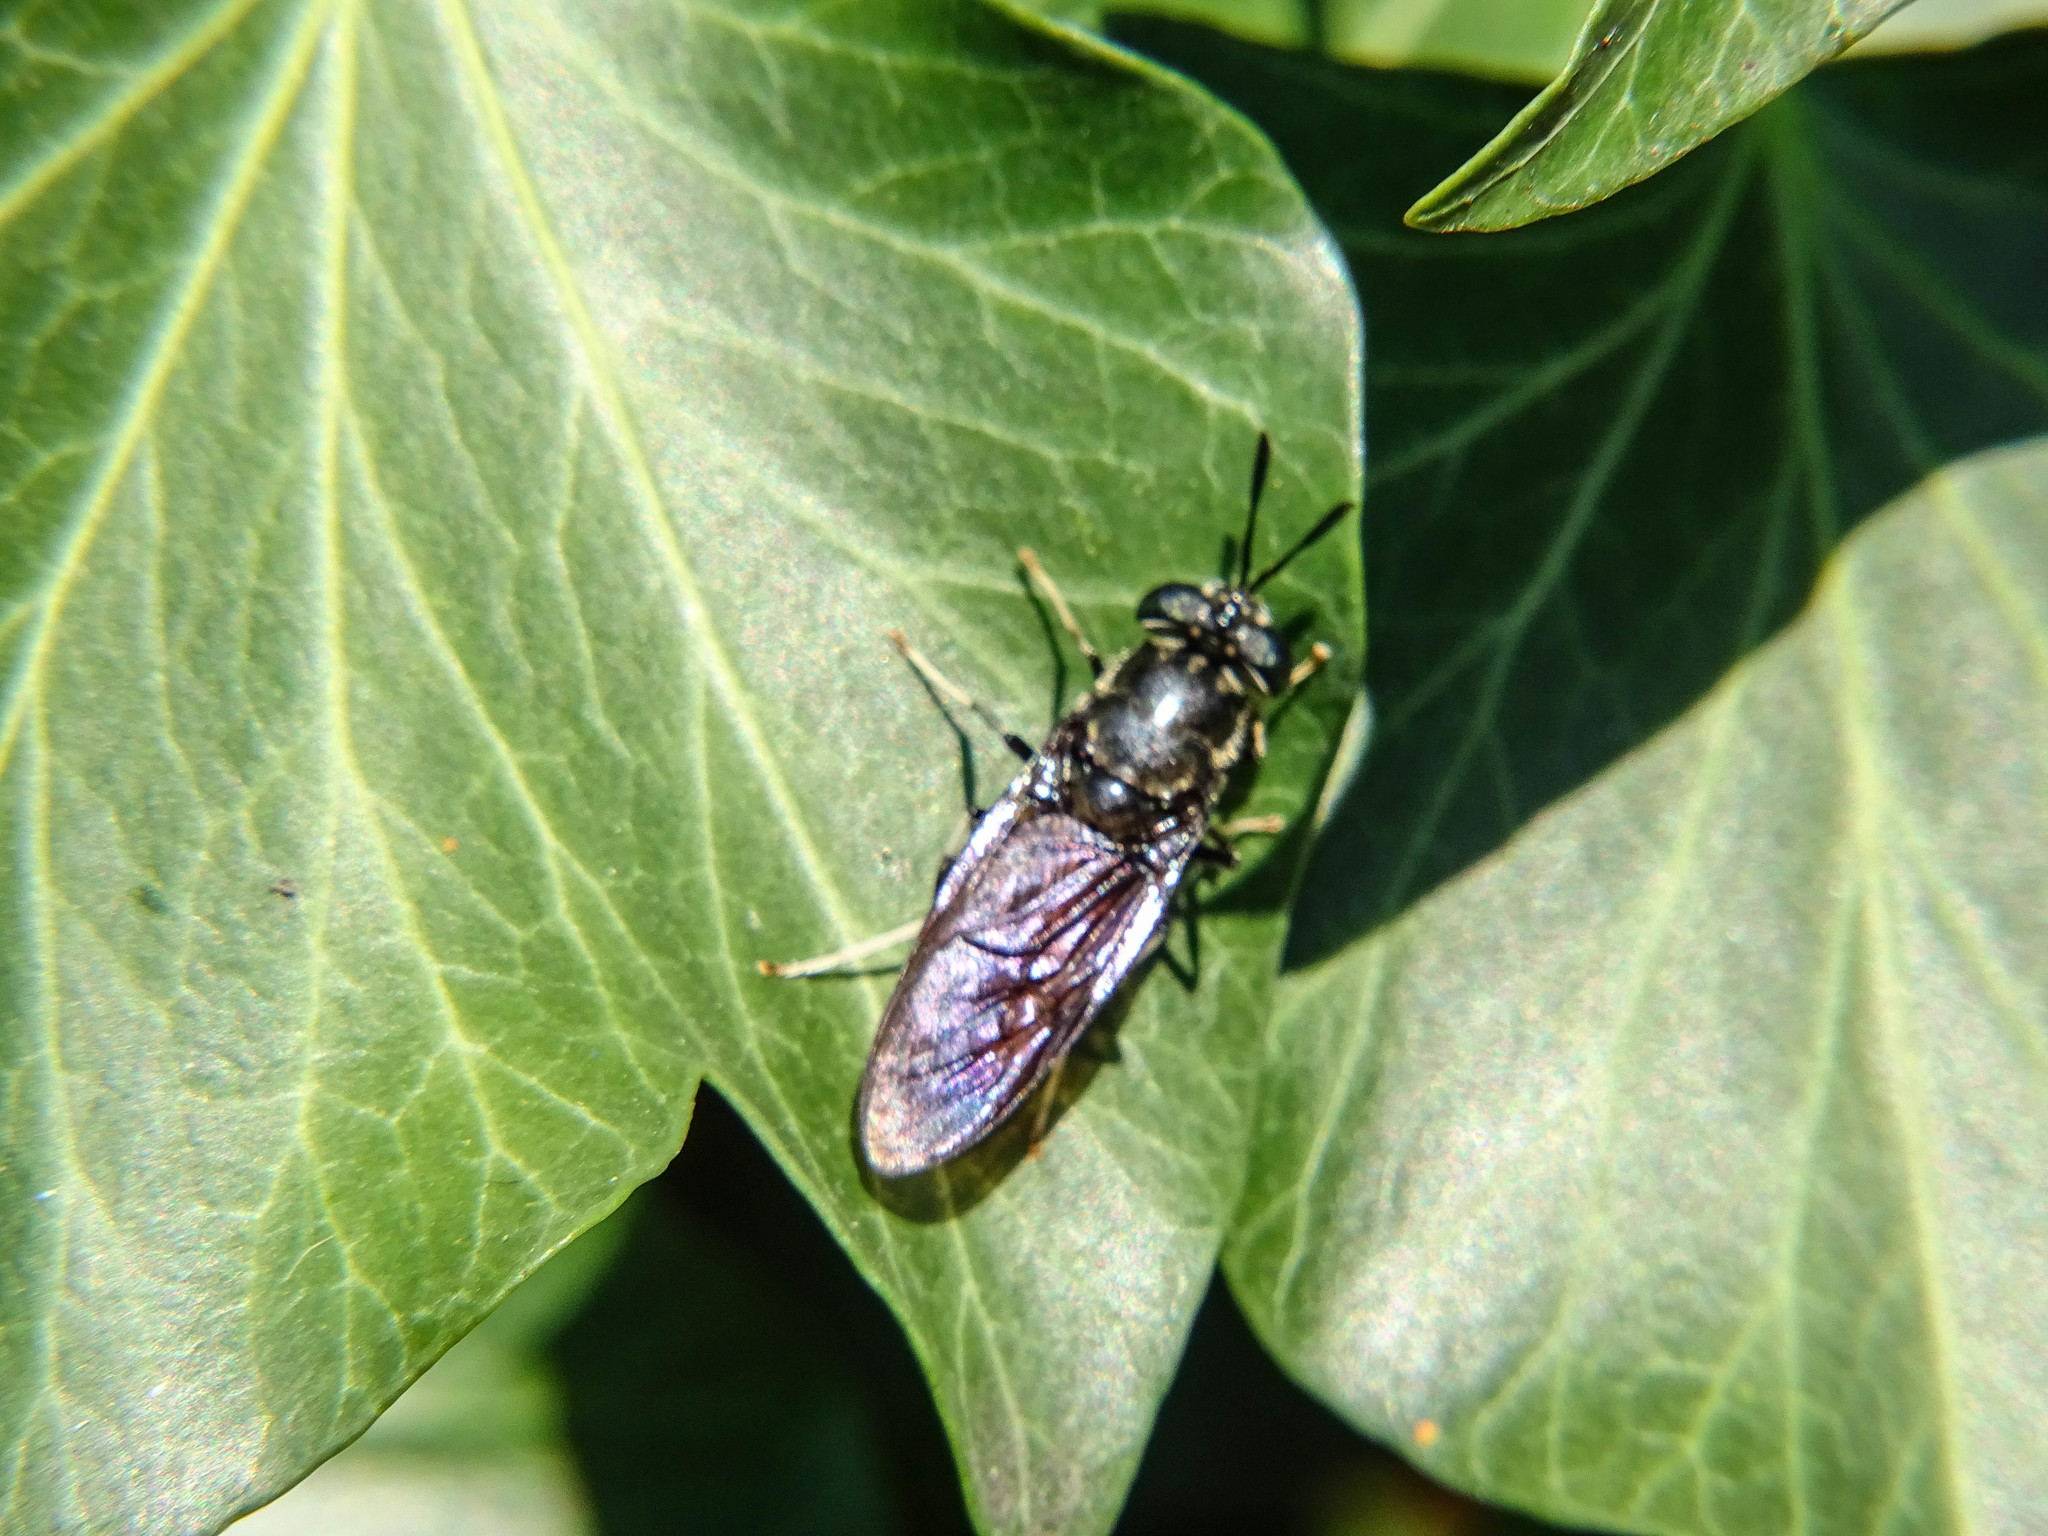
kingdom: Animalia
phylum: Arthropoda
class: Insecta
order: Diptera
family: Stratiomyidae
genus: Hermetia
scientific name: Hermetia illucens
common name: Black soldier fly
